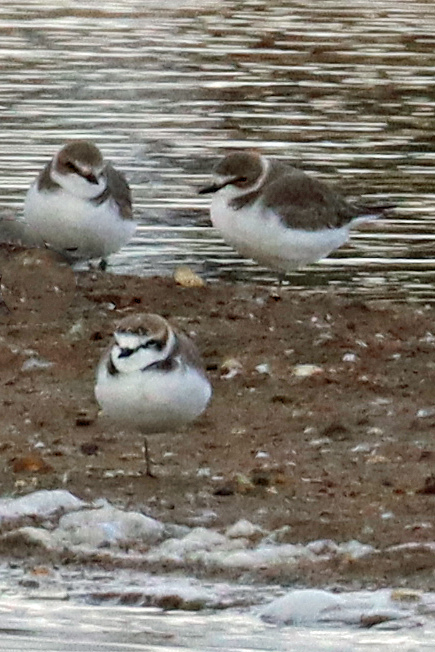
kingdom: Animalia
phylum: Chordata
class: Aves
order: Charadriiformes
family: Charadriidae
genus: Charadrius
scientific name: Charadrius alexandrinus
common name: Kentish plover
